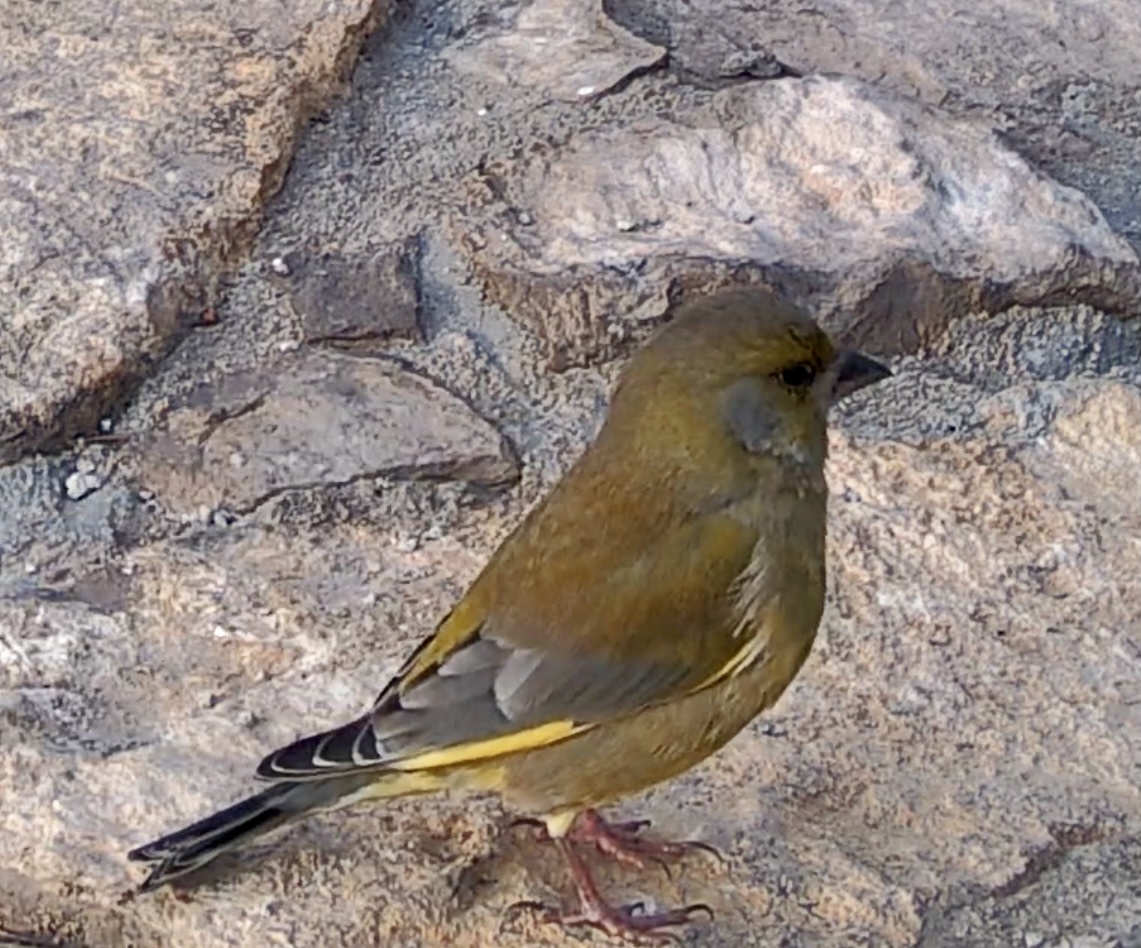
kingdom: Plantae
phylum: Tracheophyta
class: Liliopsida
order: Poales
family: Poaceae
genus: Chloris
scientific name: Chloris chloris
